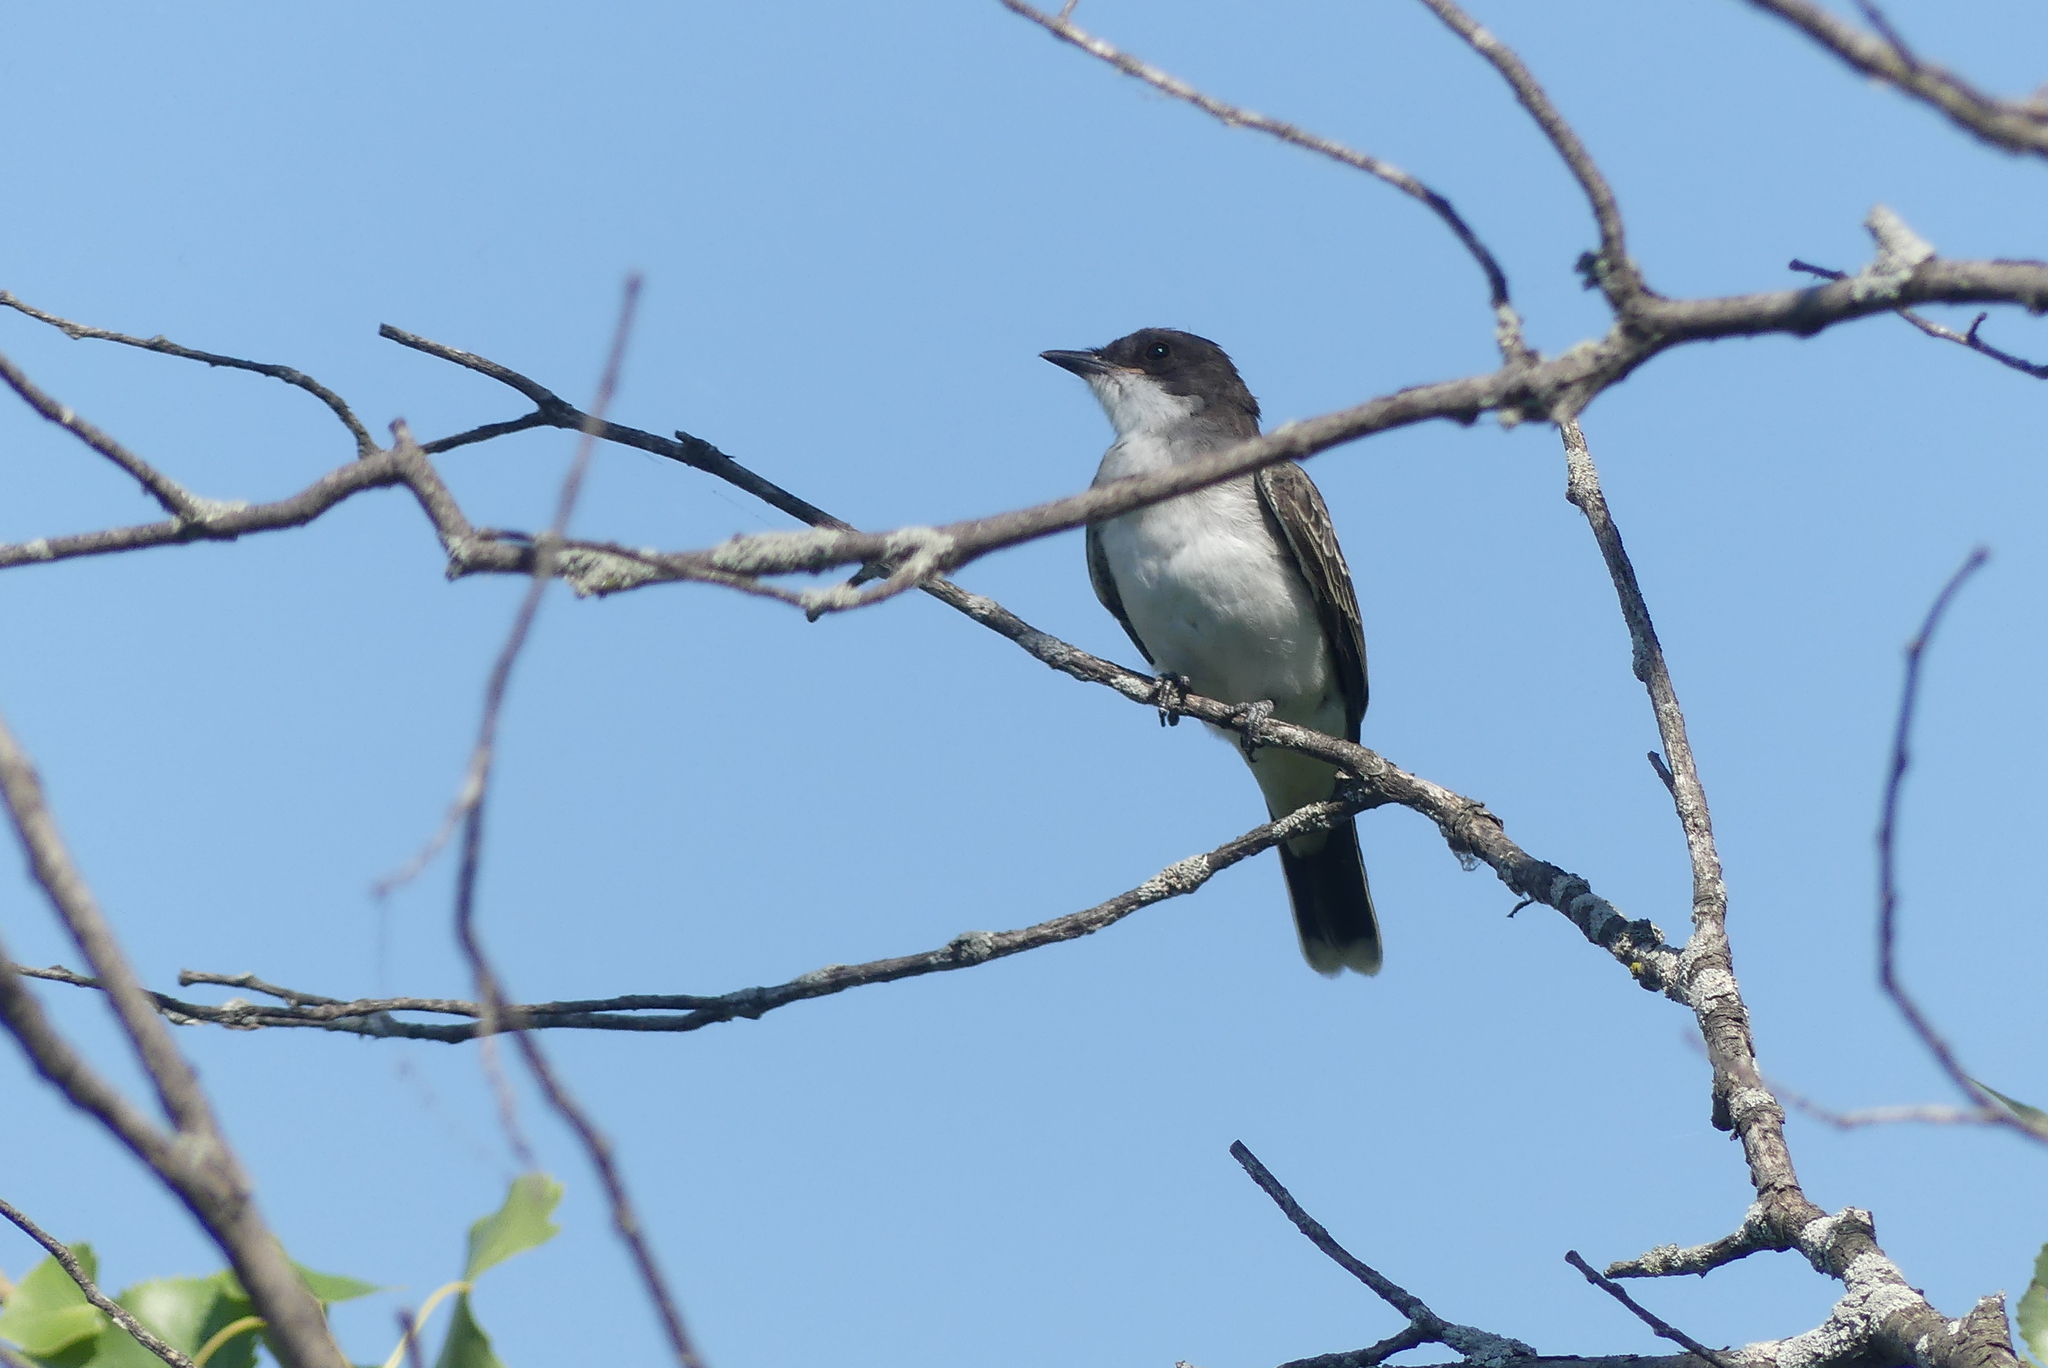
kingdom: Animalia
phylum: Chordata
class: Aves
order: Passeriformes
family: Tyrannidae
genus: Tyrannus
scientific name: Tyrannus tyrannus
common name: Eastern kingbird
